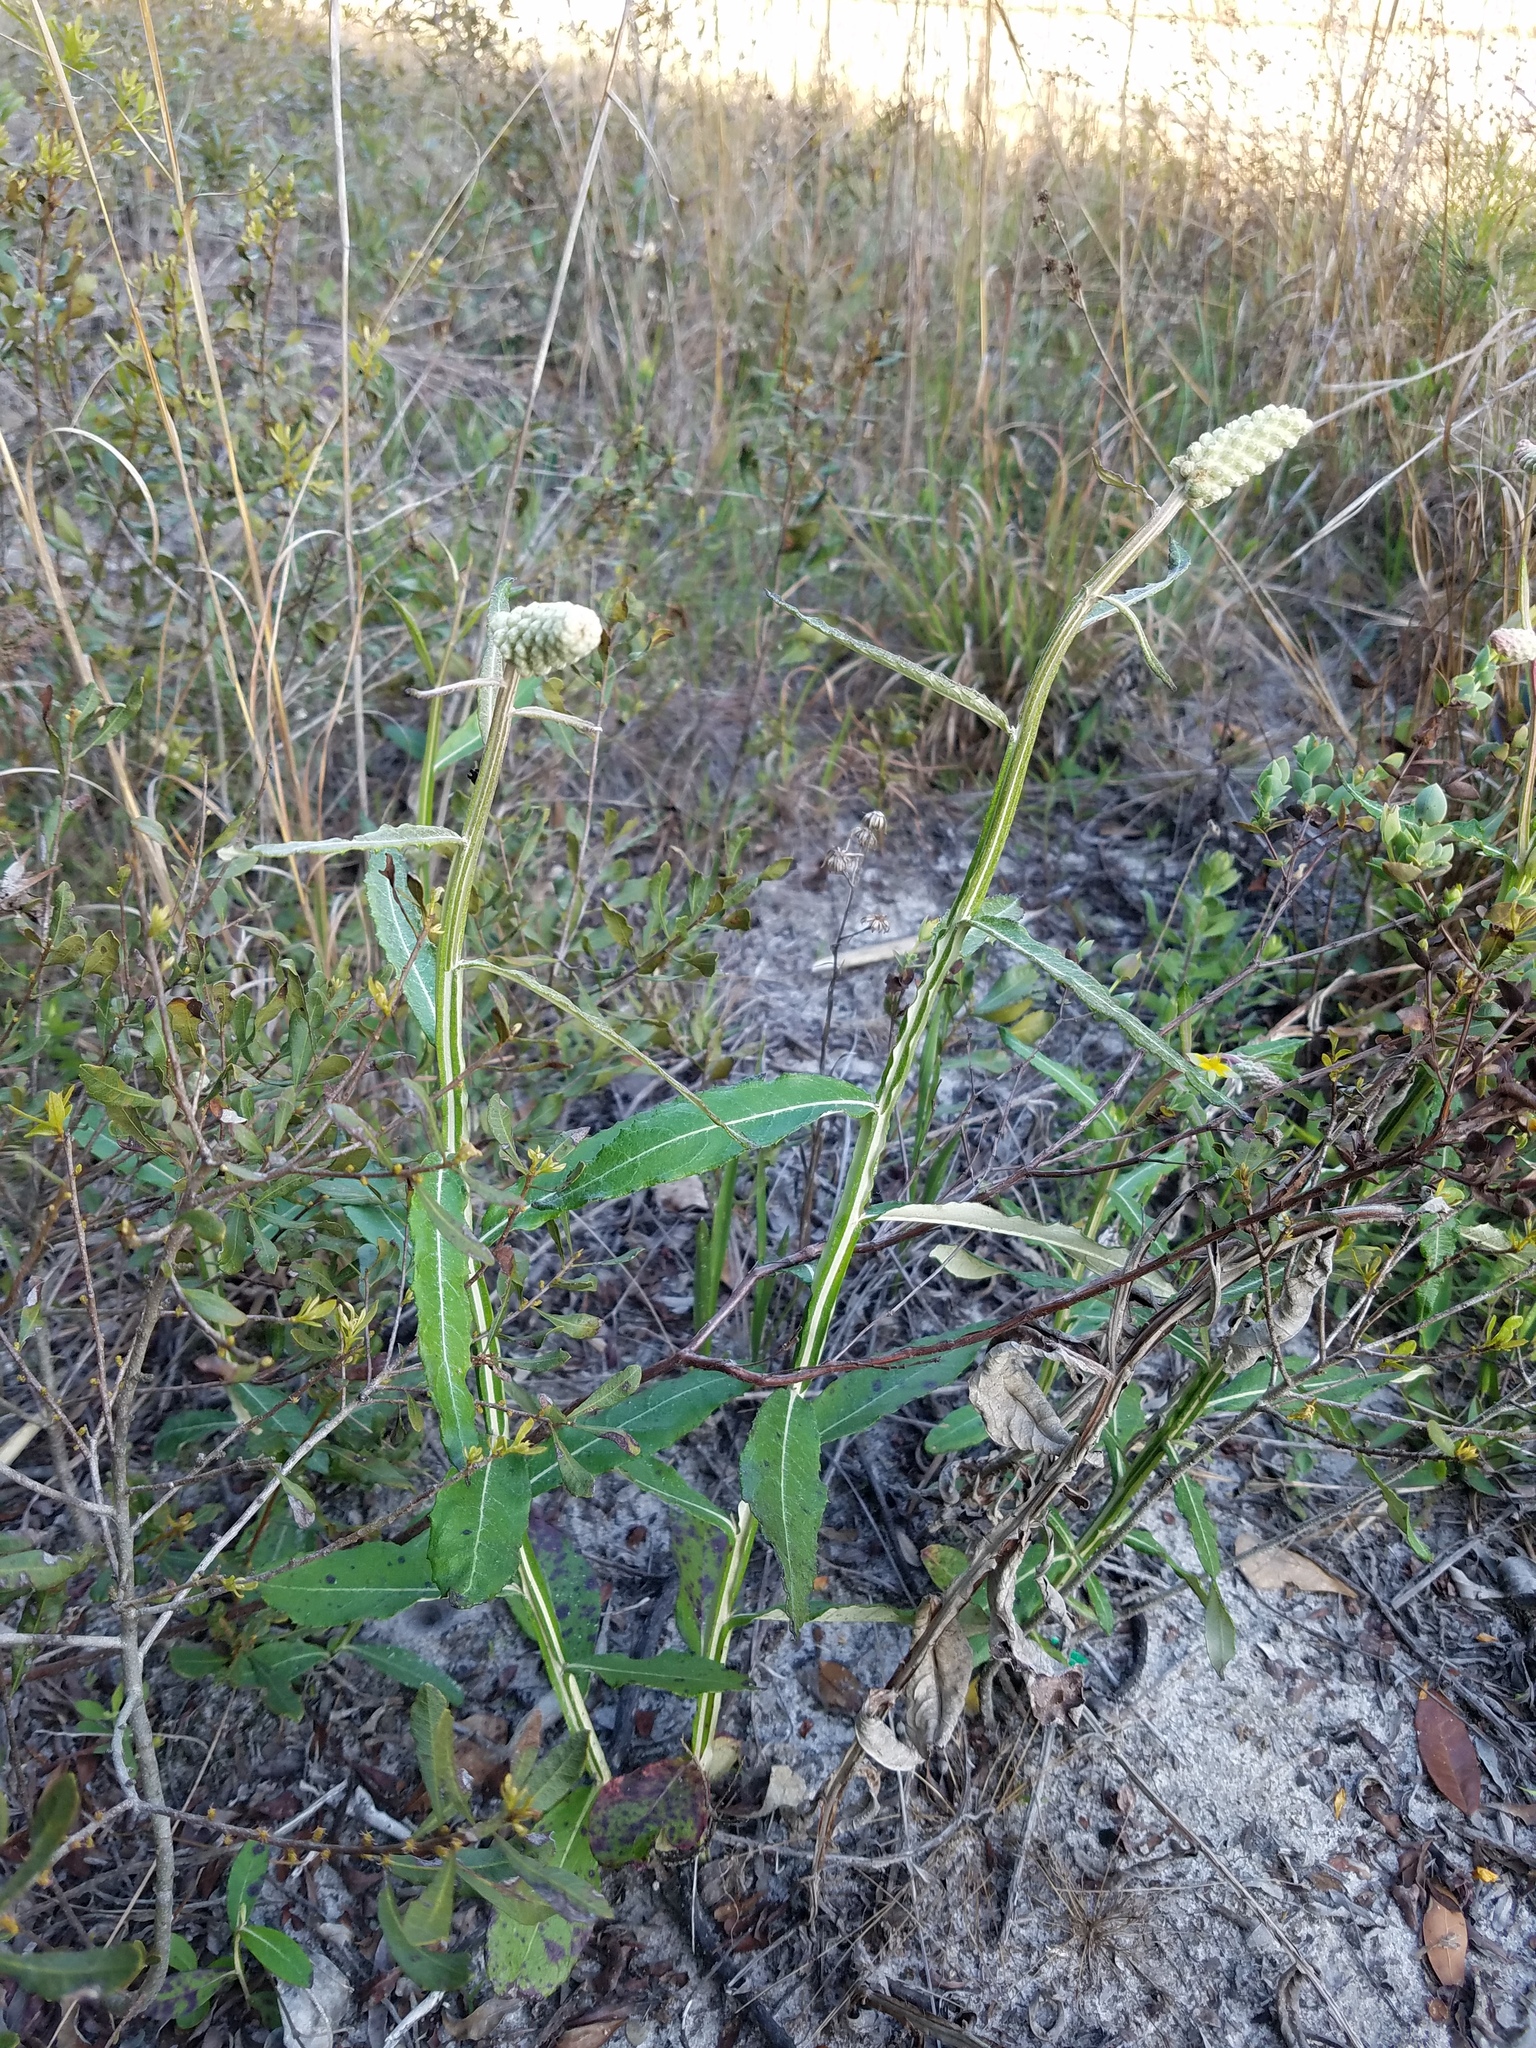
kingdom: Plantae
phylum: Tracheophyta
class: Magnoliopsida
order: Asterales
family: Asteraceae
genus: Pterocaulon
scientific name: Pterocaulon pycnostachyum
